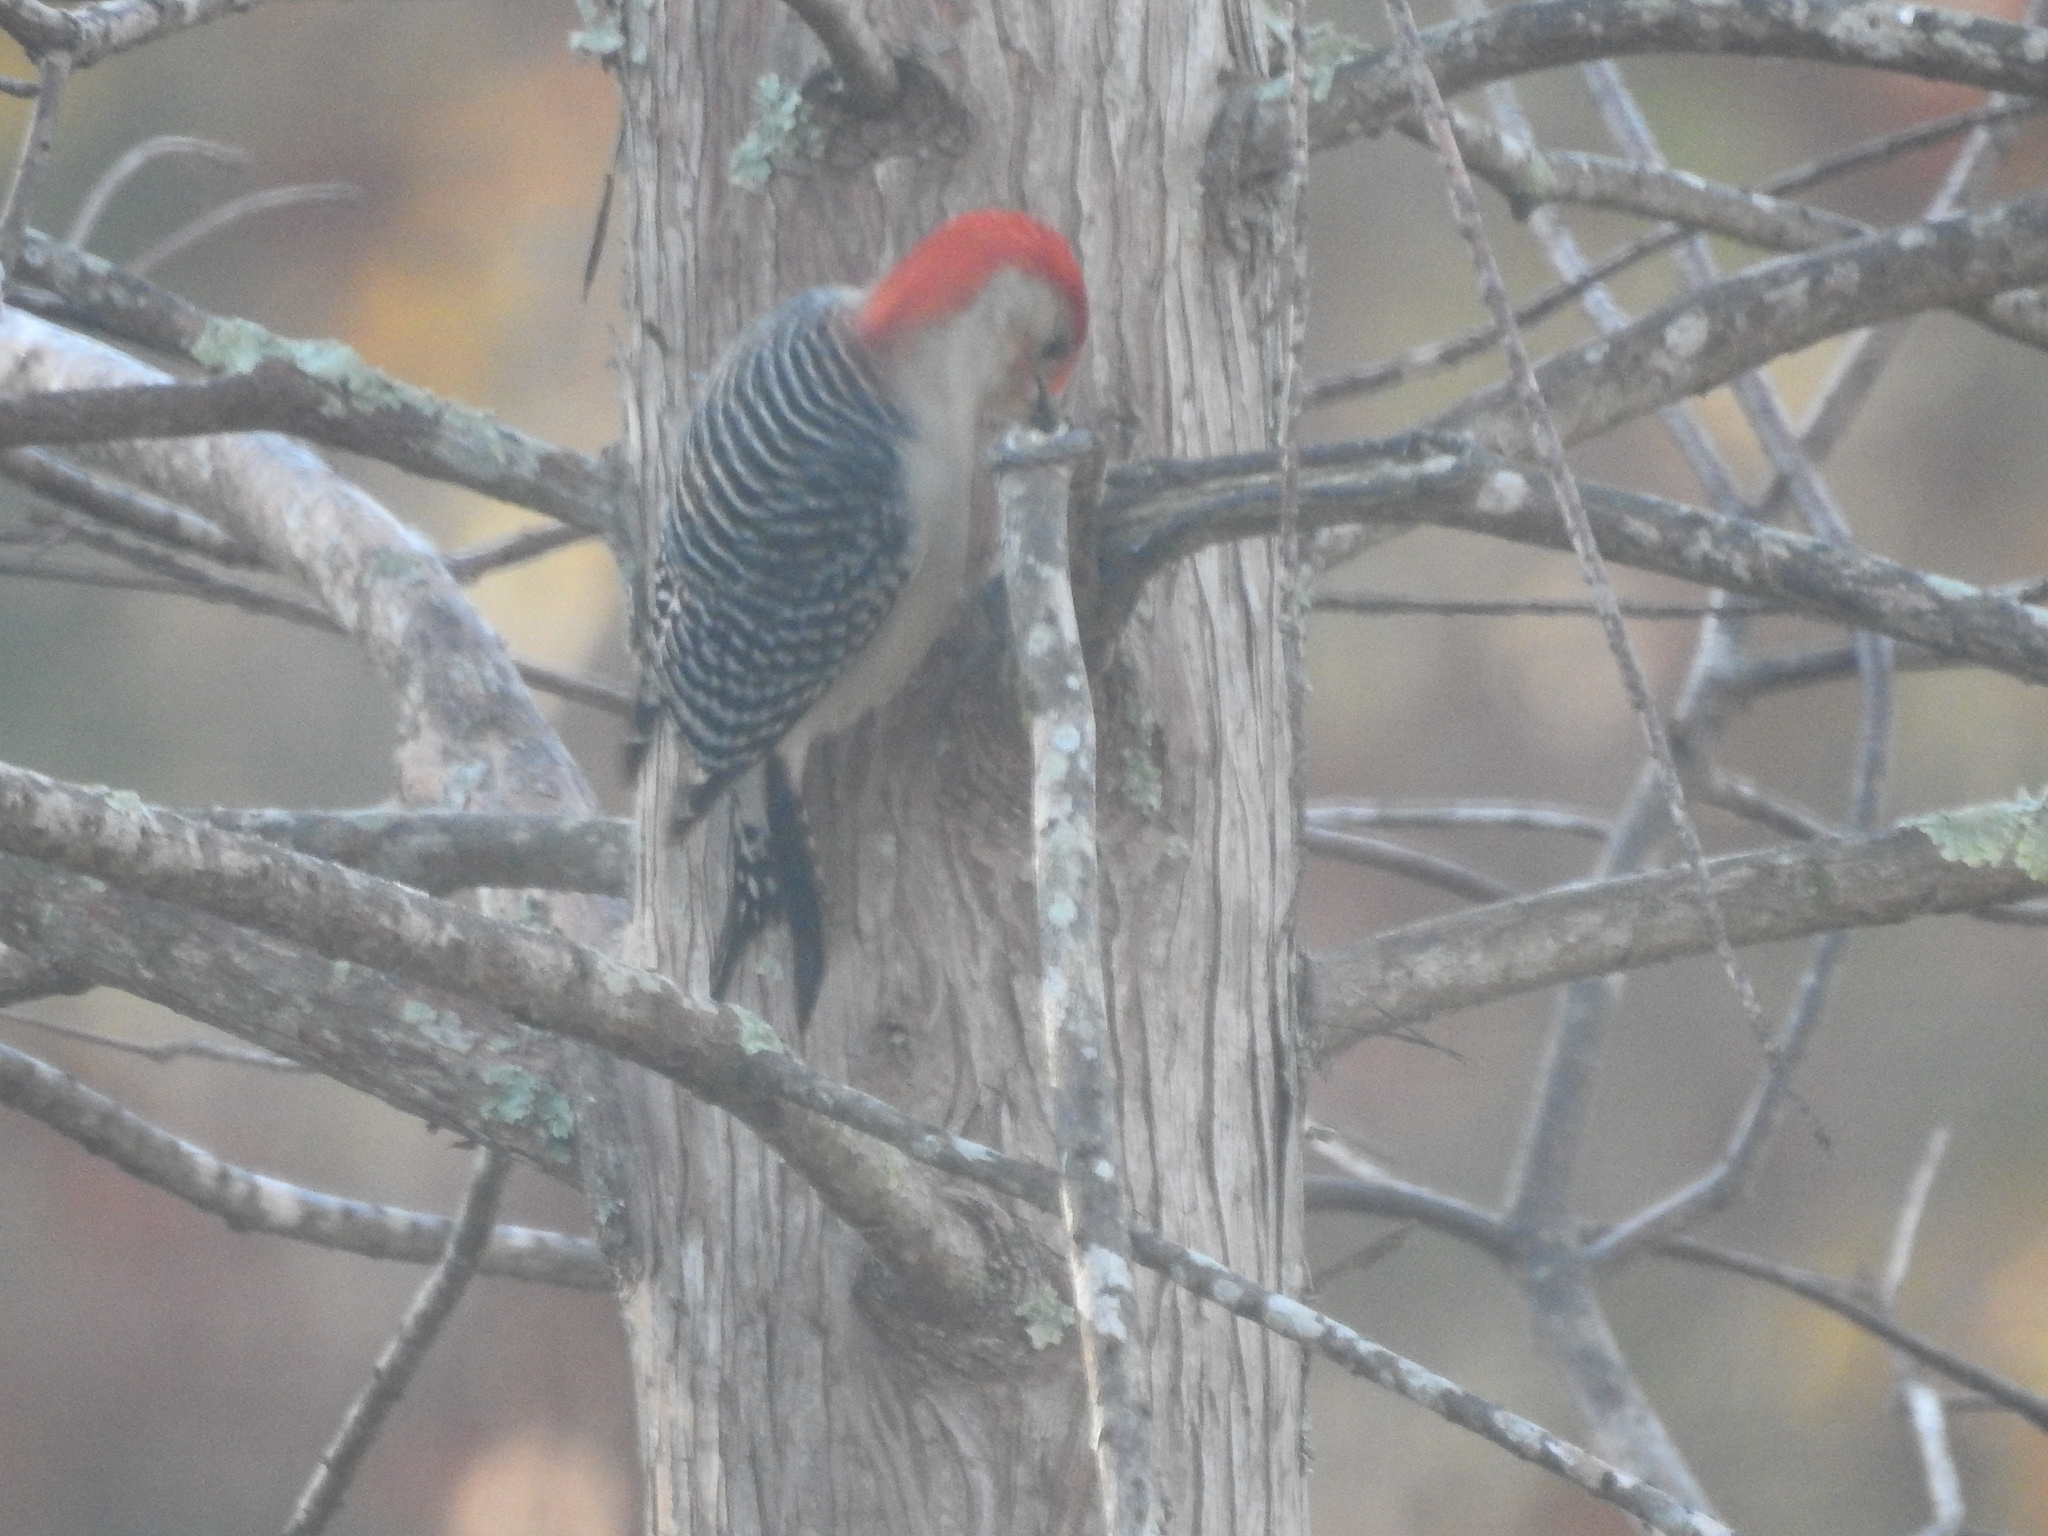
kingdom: Animalia
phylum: Chordata
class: Aves
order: Piciformes
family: Picidae
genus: Melanerpes
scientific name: Melanerpes carolinus
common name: Red-bellied woodpecker
